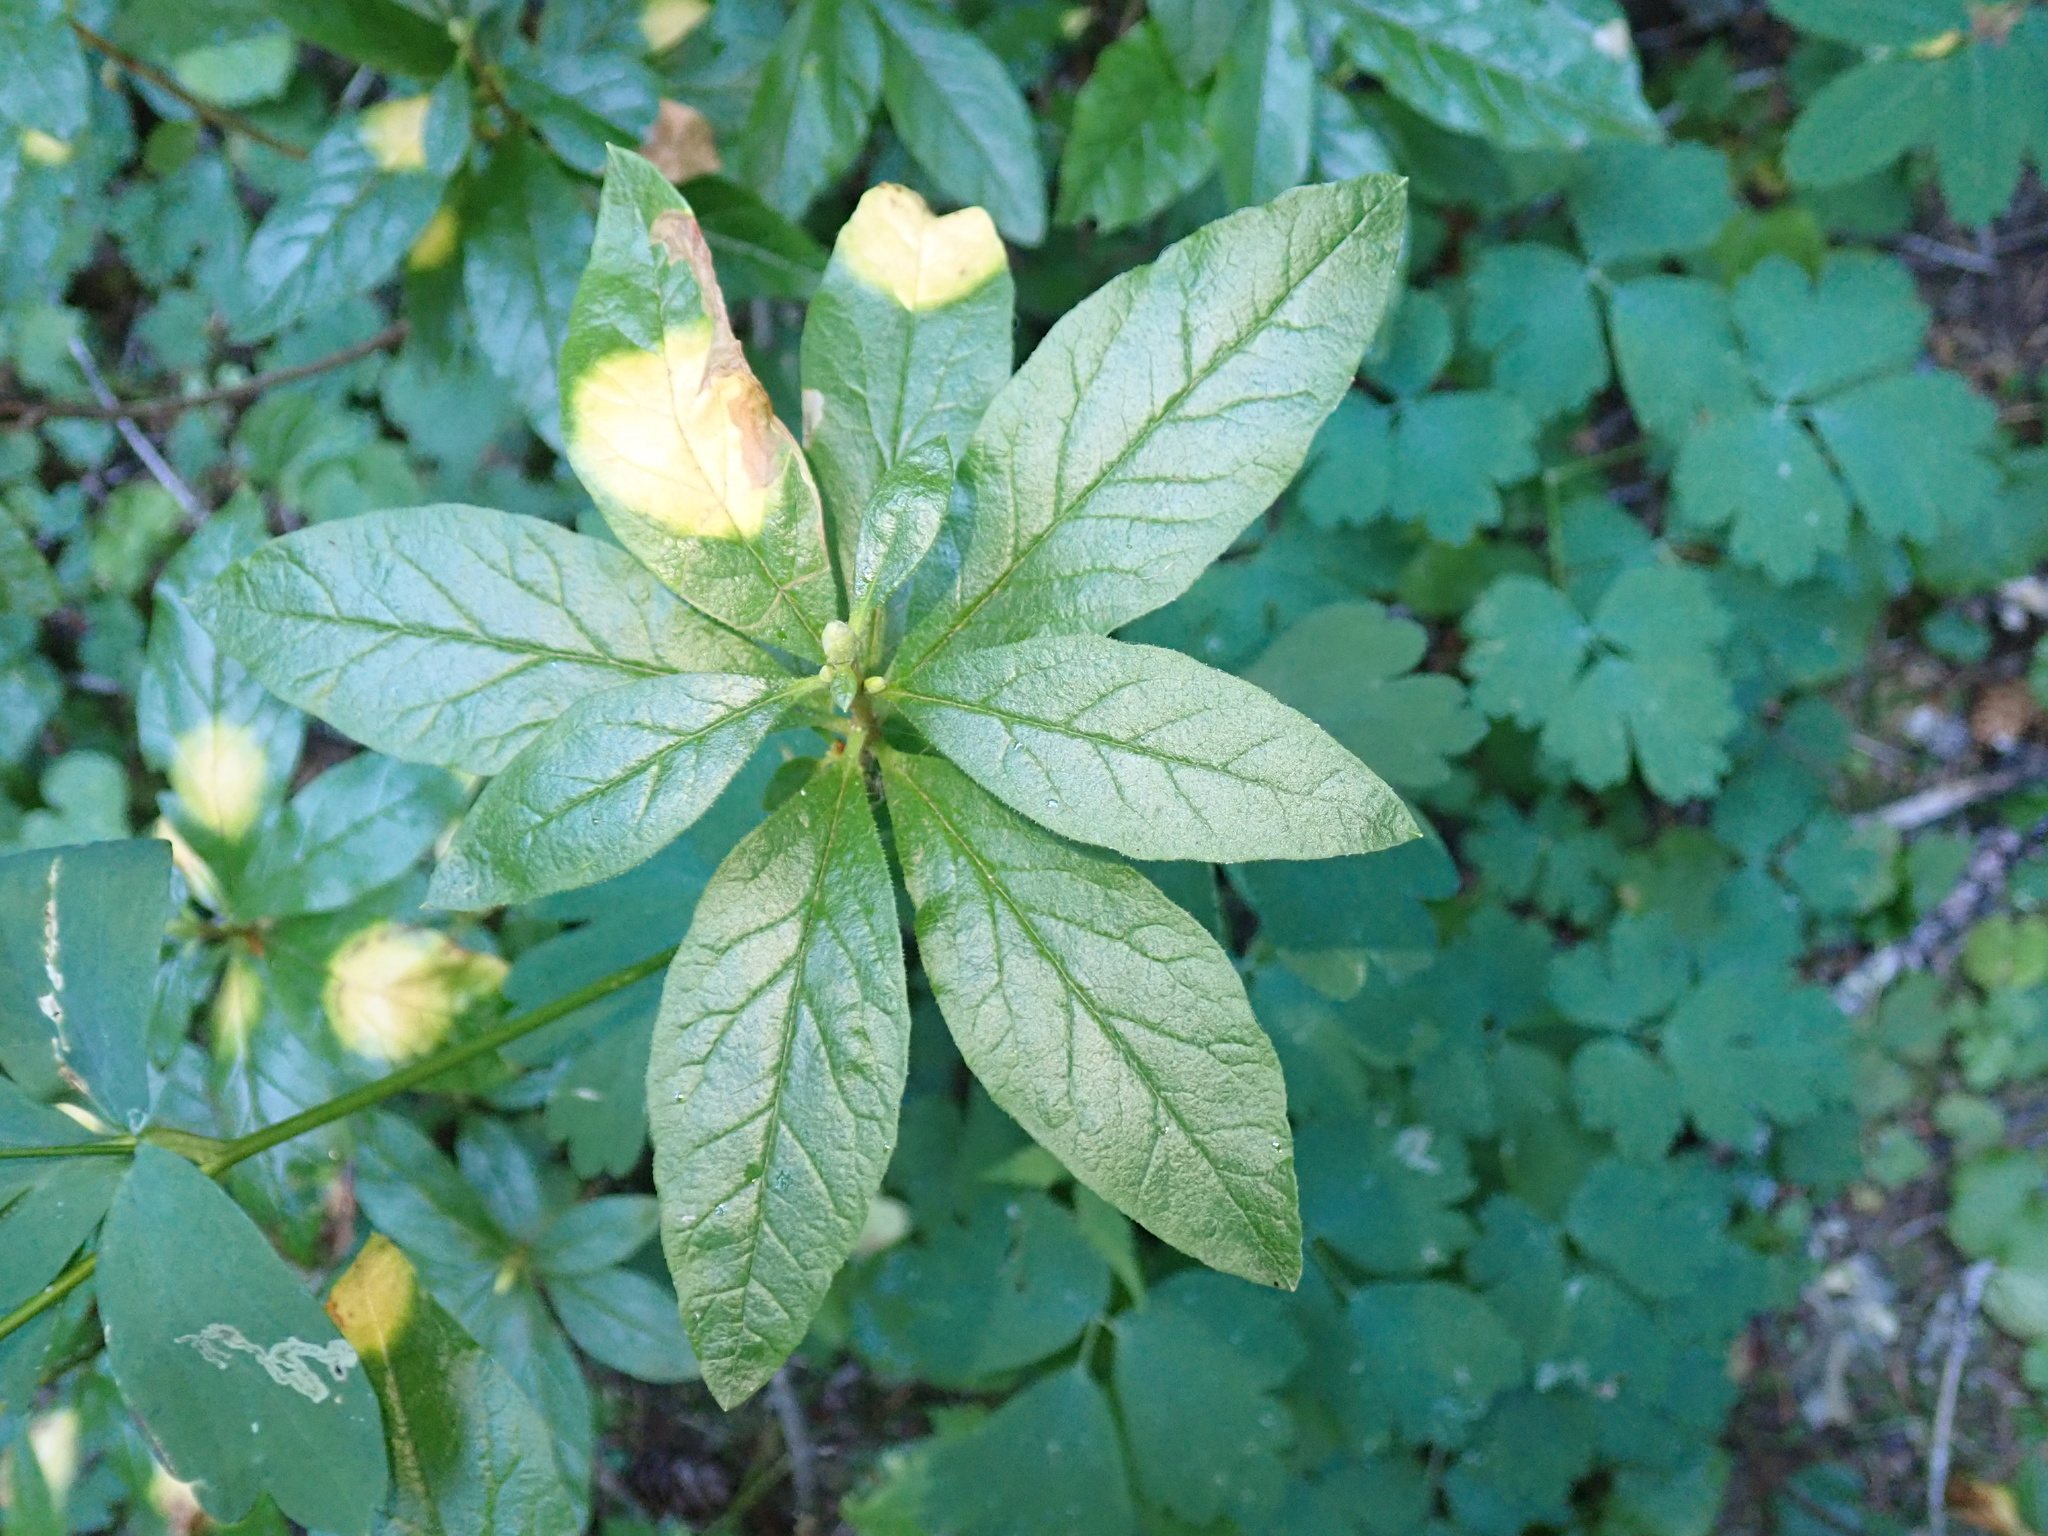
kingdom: Plantae
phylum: Tracheophyta
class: Magnoliopsida
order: Ericales
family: Ericaceae
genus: Rhododendron
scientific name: Rhododendron albiflorum
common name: White rhododendron
